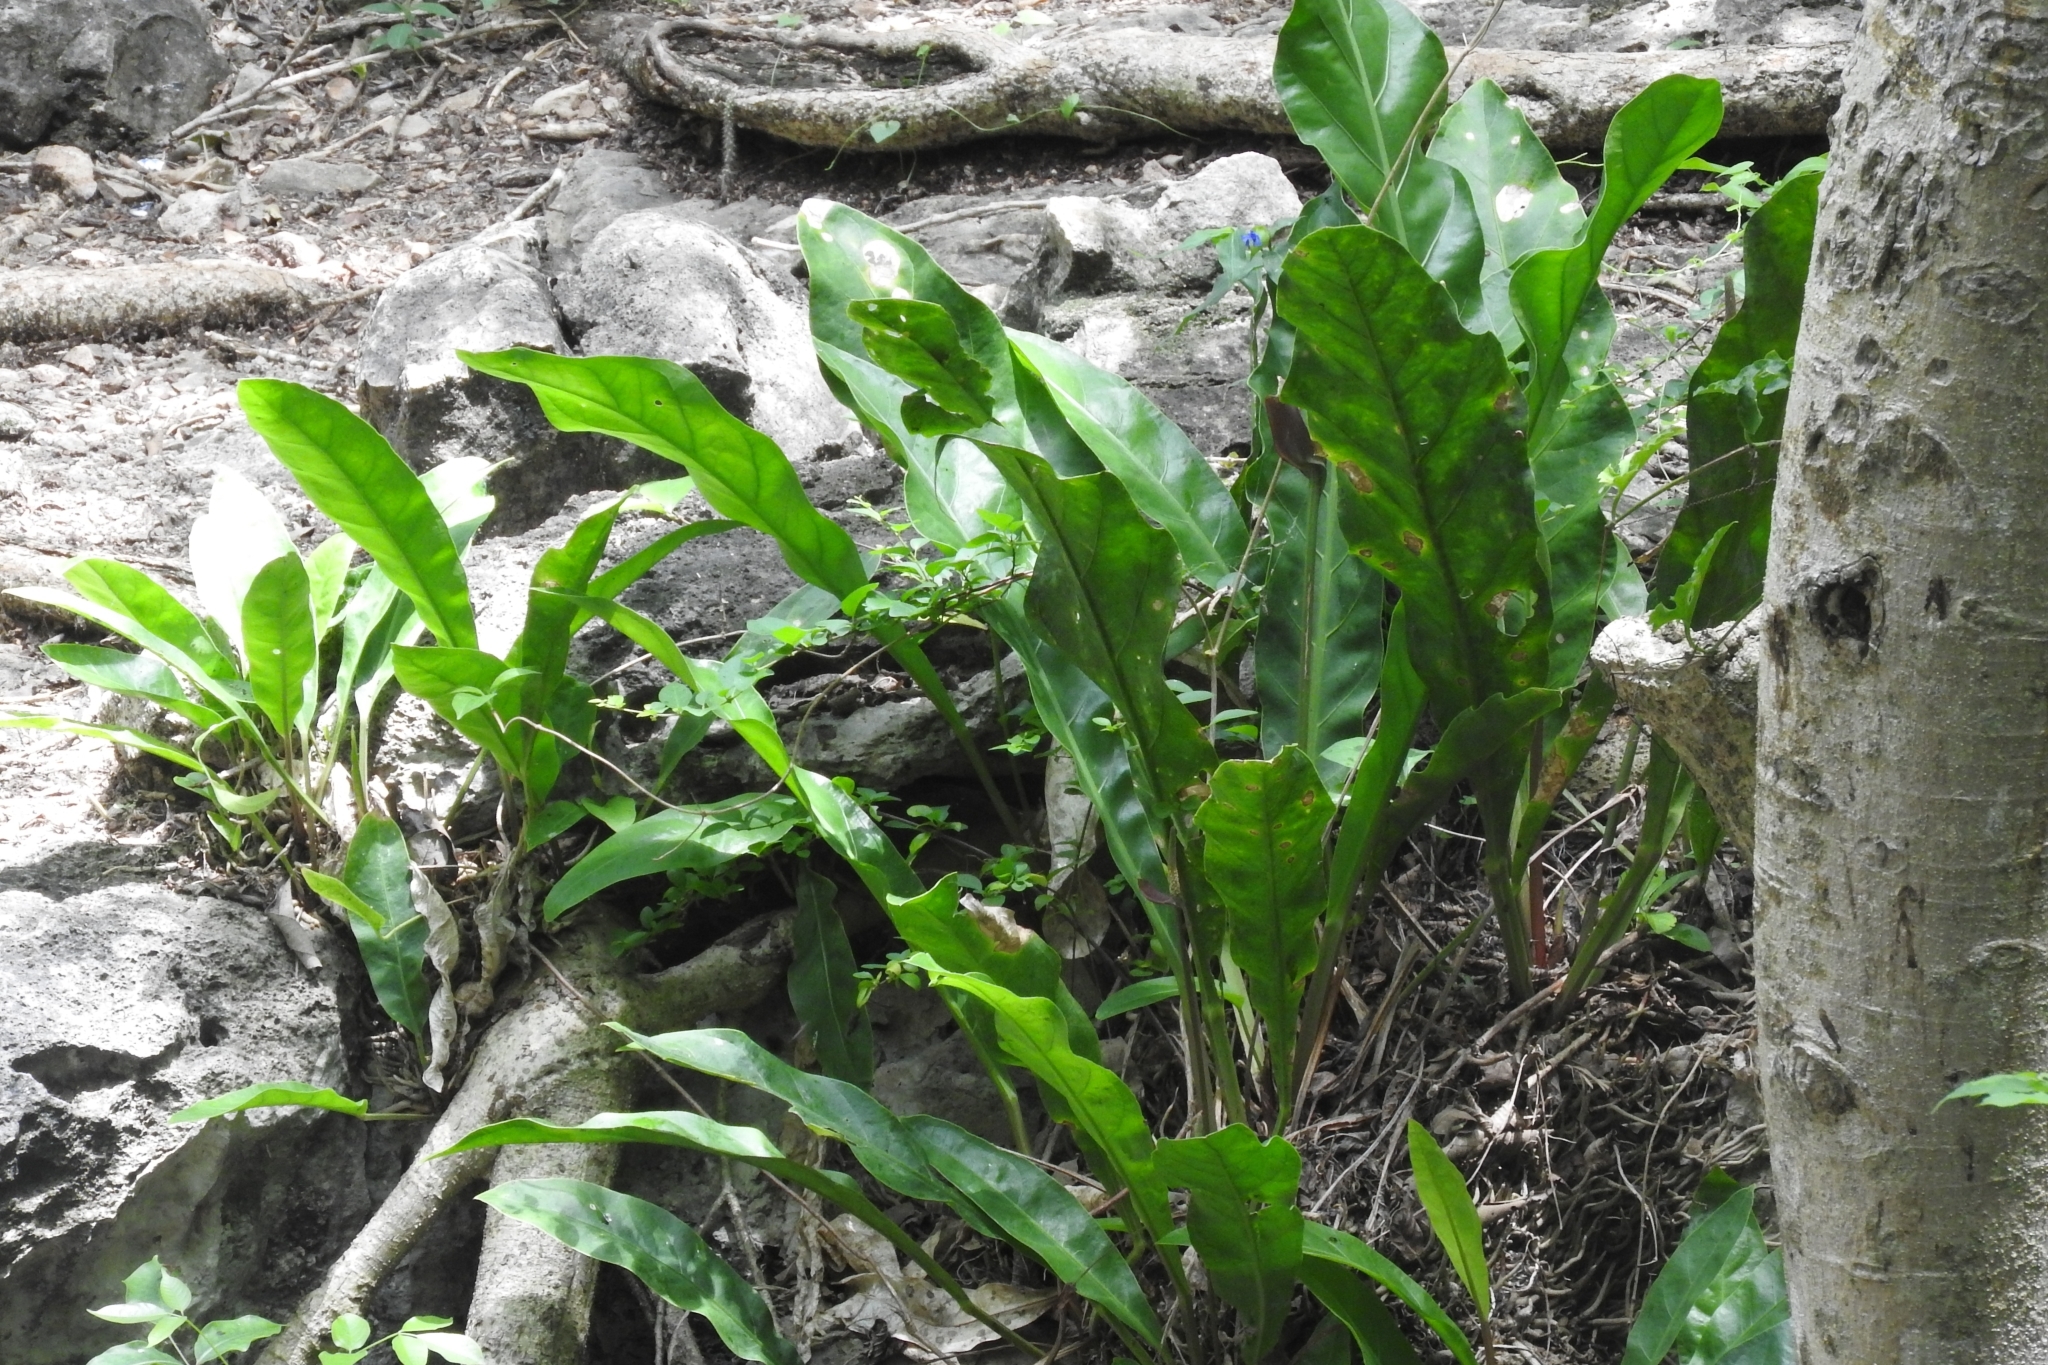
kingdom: Plantae
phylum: Tracheophyta
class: Liliopsida
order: Alismatales
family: Araceae
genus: Anthurium
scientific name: Anthurium schlechtendalii
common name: Laceleaf
